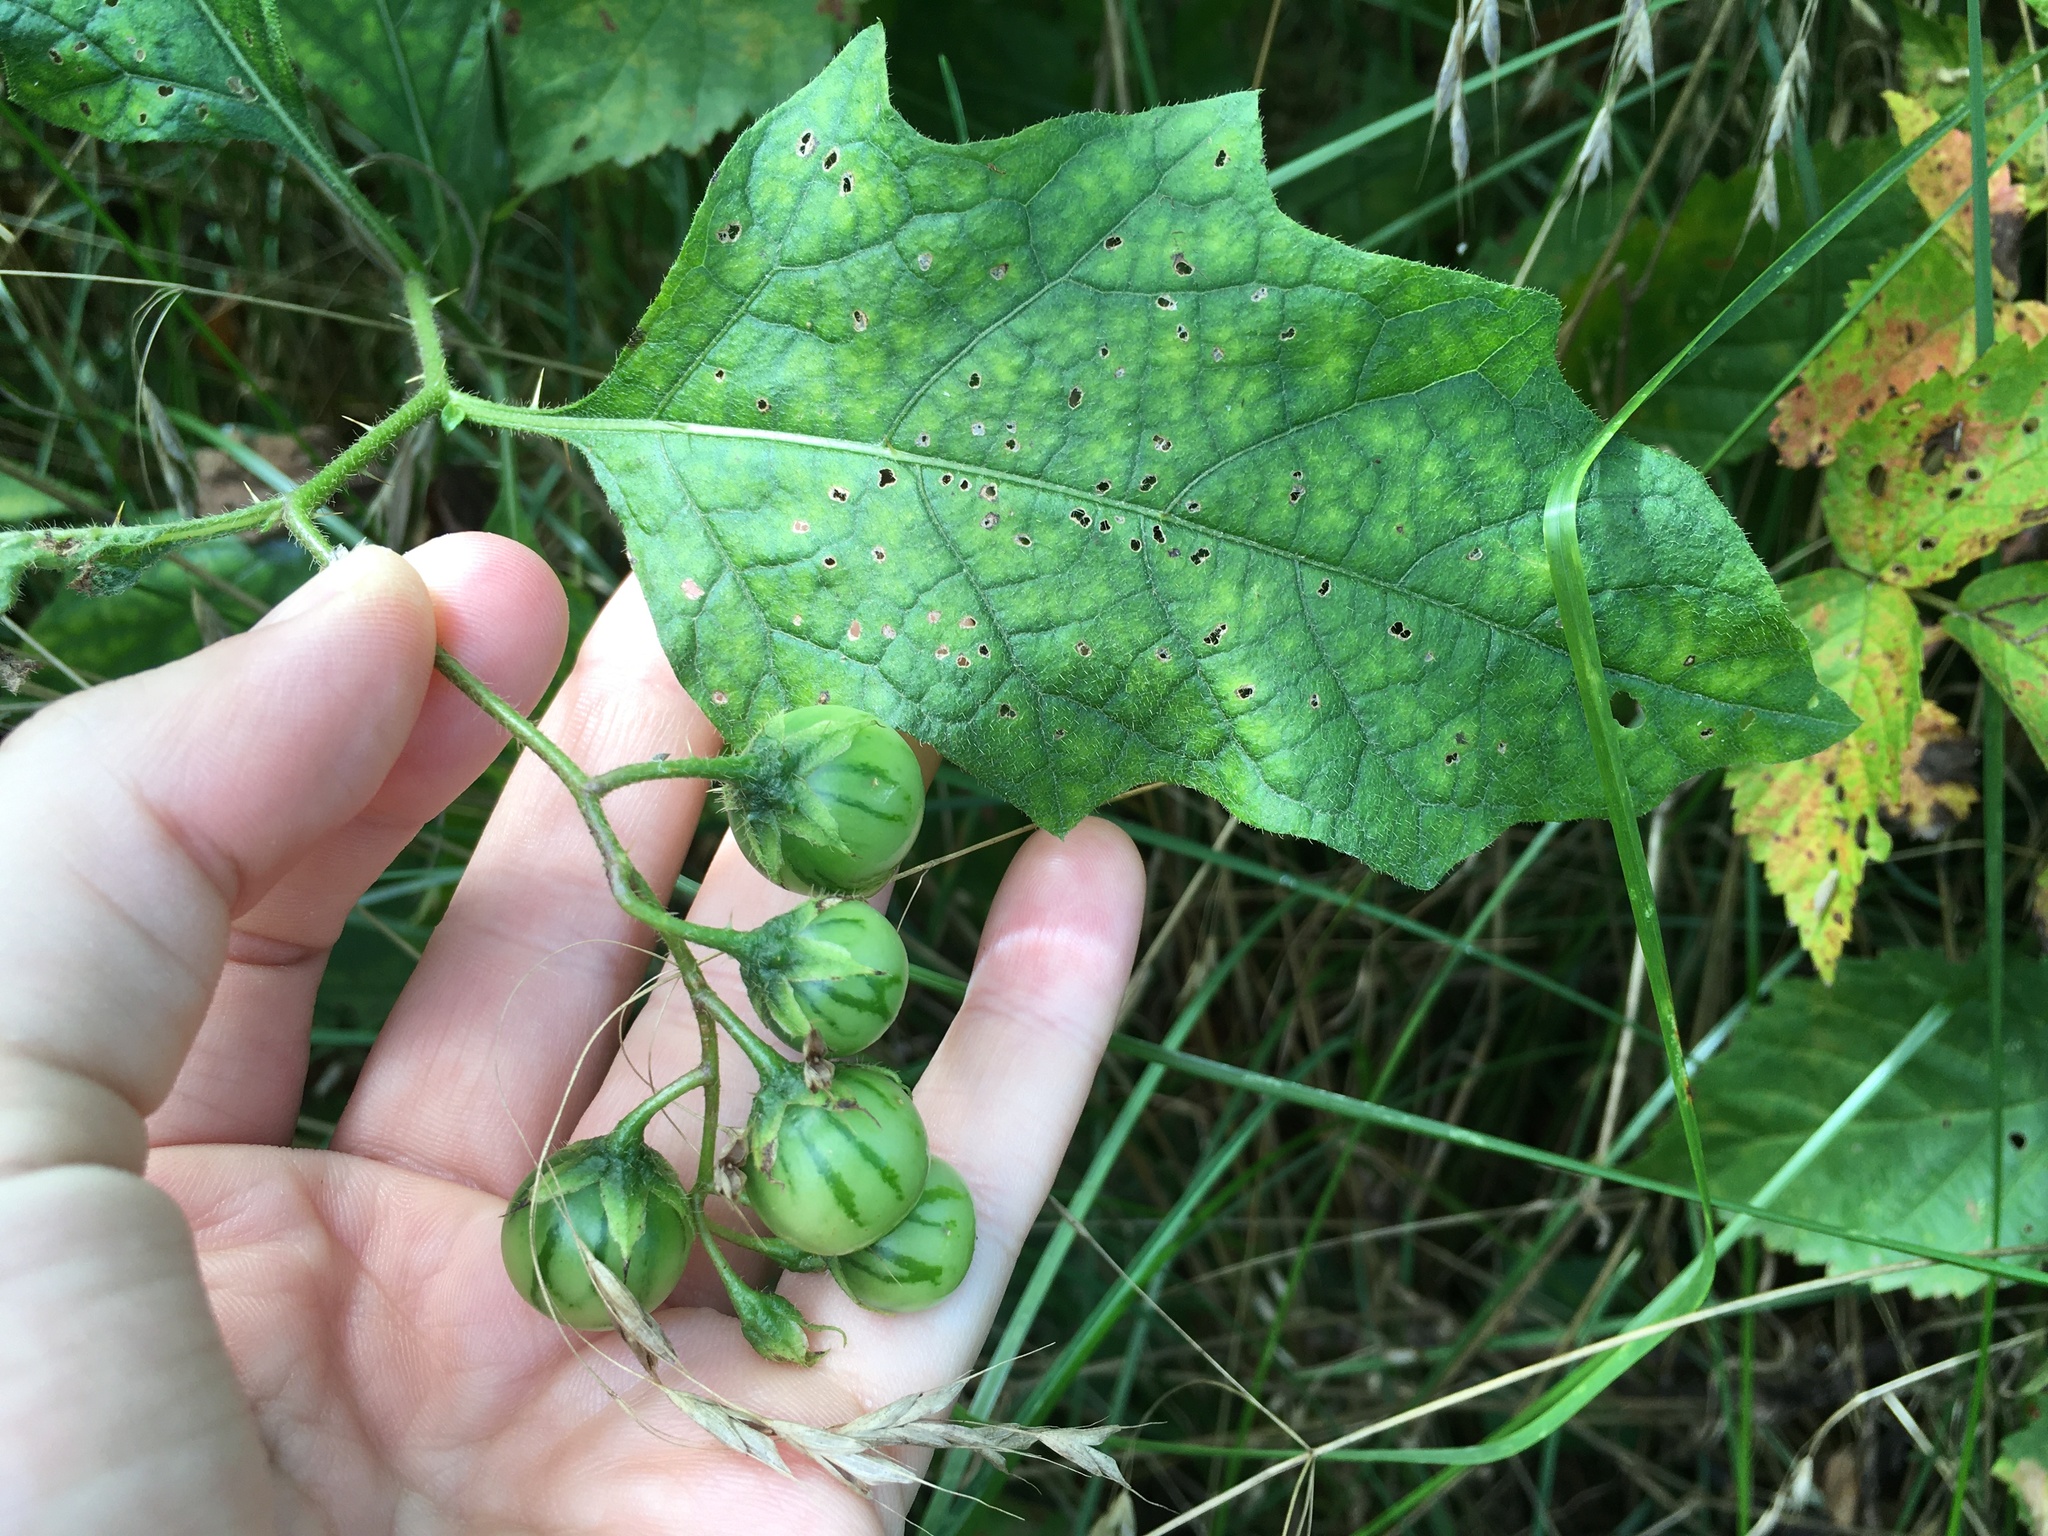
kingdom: Plantae
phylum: Tracheophyta
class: Magnoliopsida
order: Solanales
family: Solanaceae
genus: Solanum
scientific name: Solanum carolinense
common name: Horse-nettle
